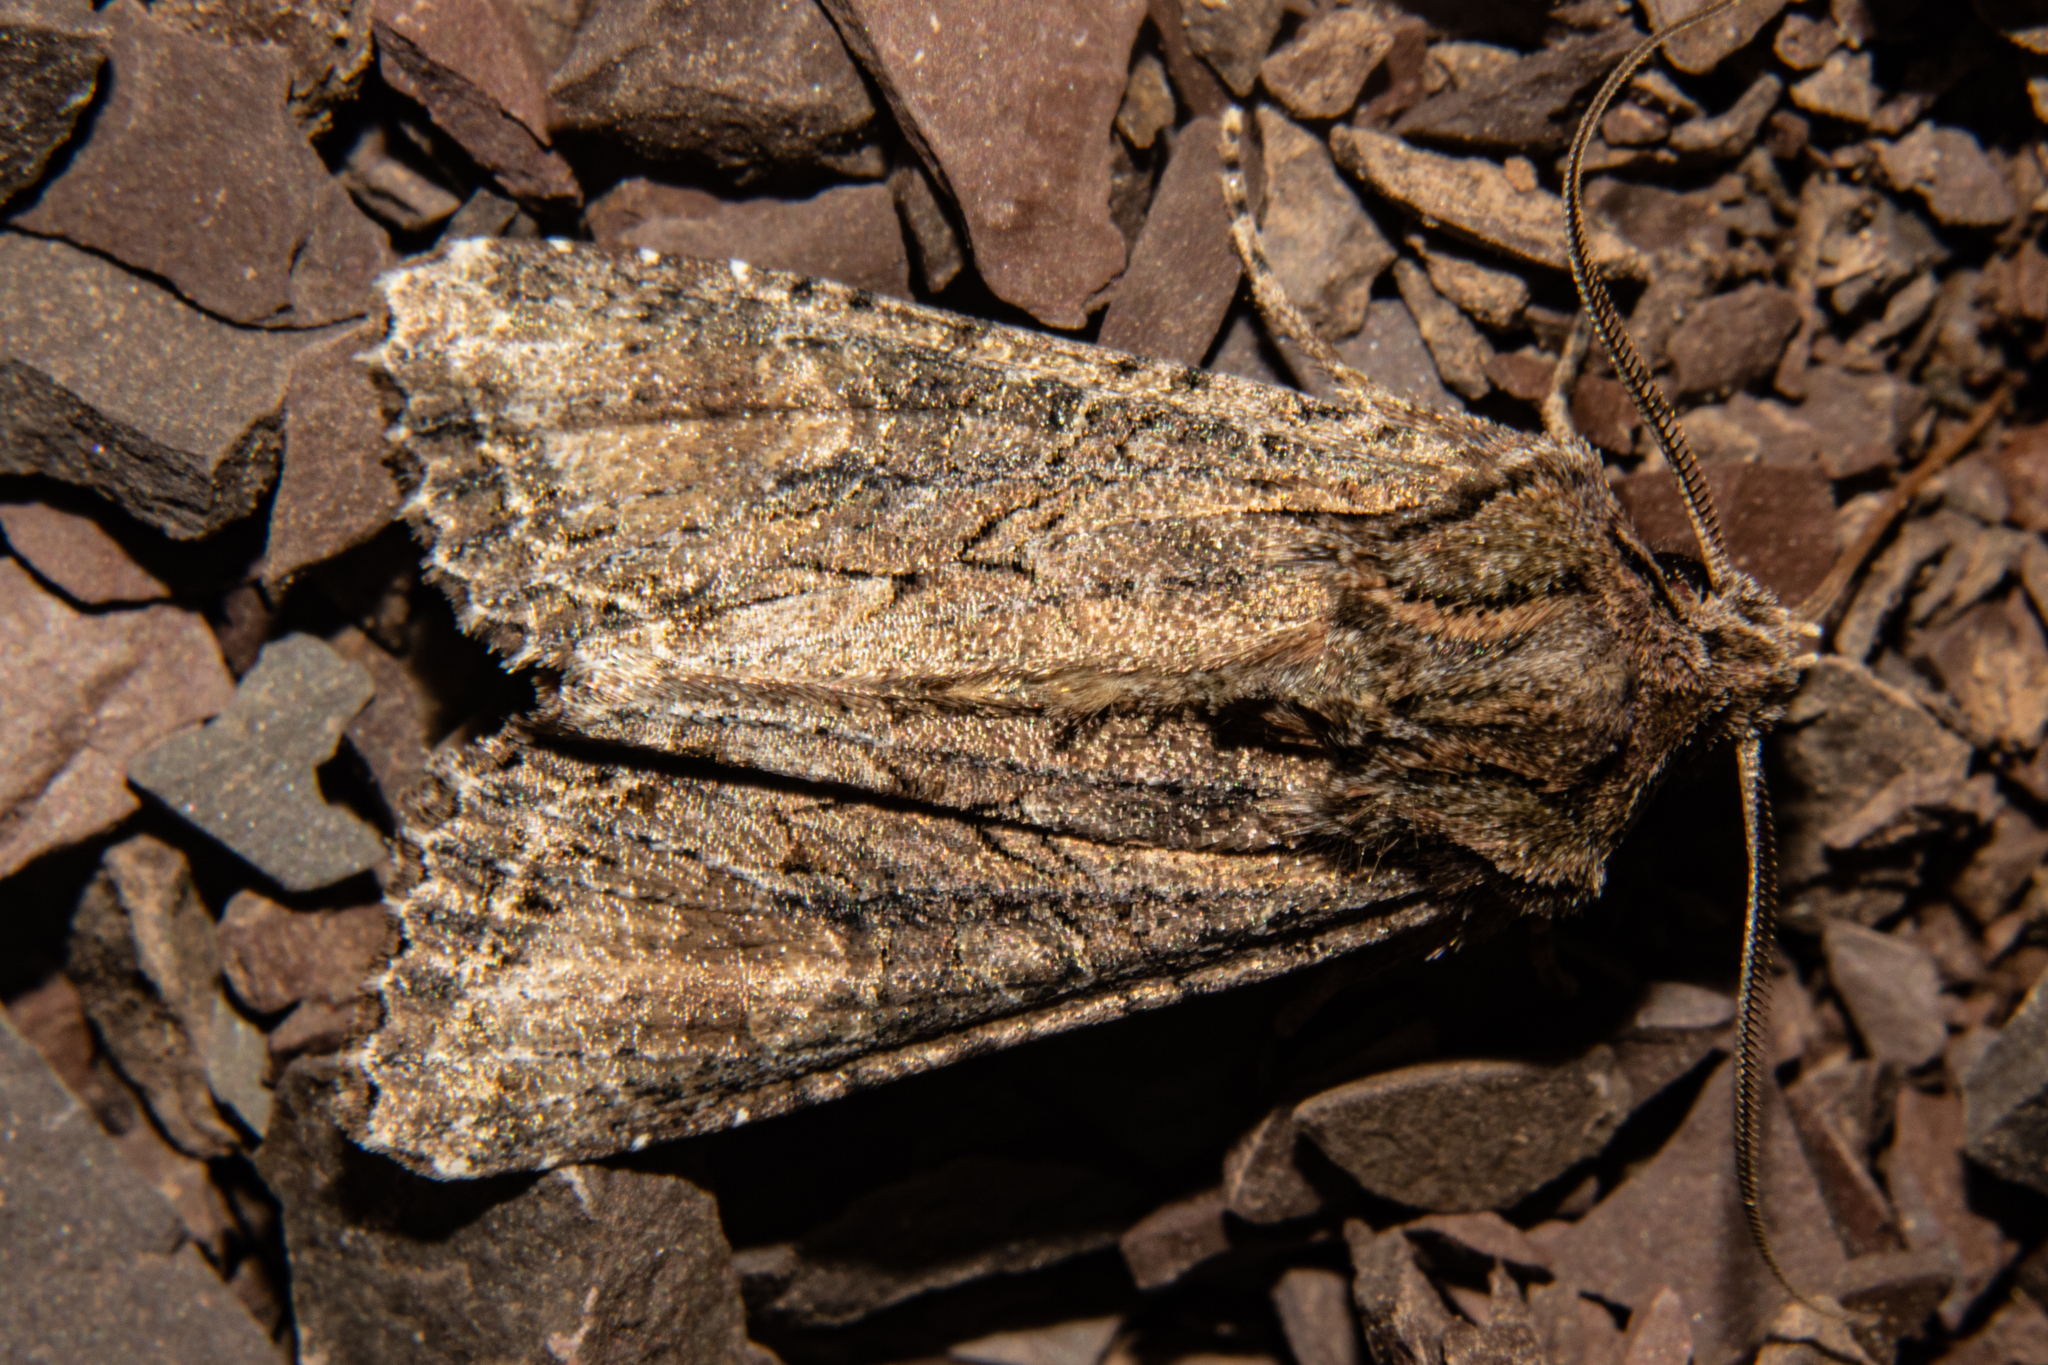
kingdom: Animalia
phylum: Arthropoda
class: Insecta
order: Lepidoptera
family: Noctuidae
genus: Ichneutica
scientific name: Ichneutica mutans
